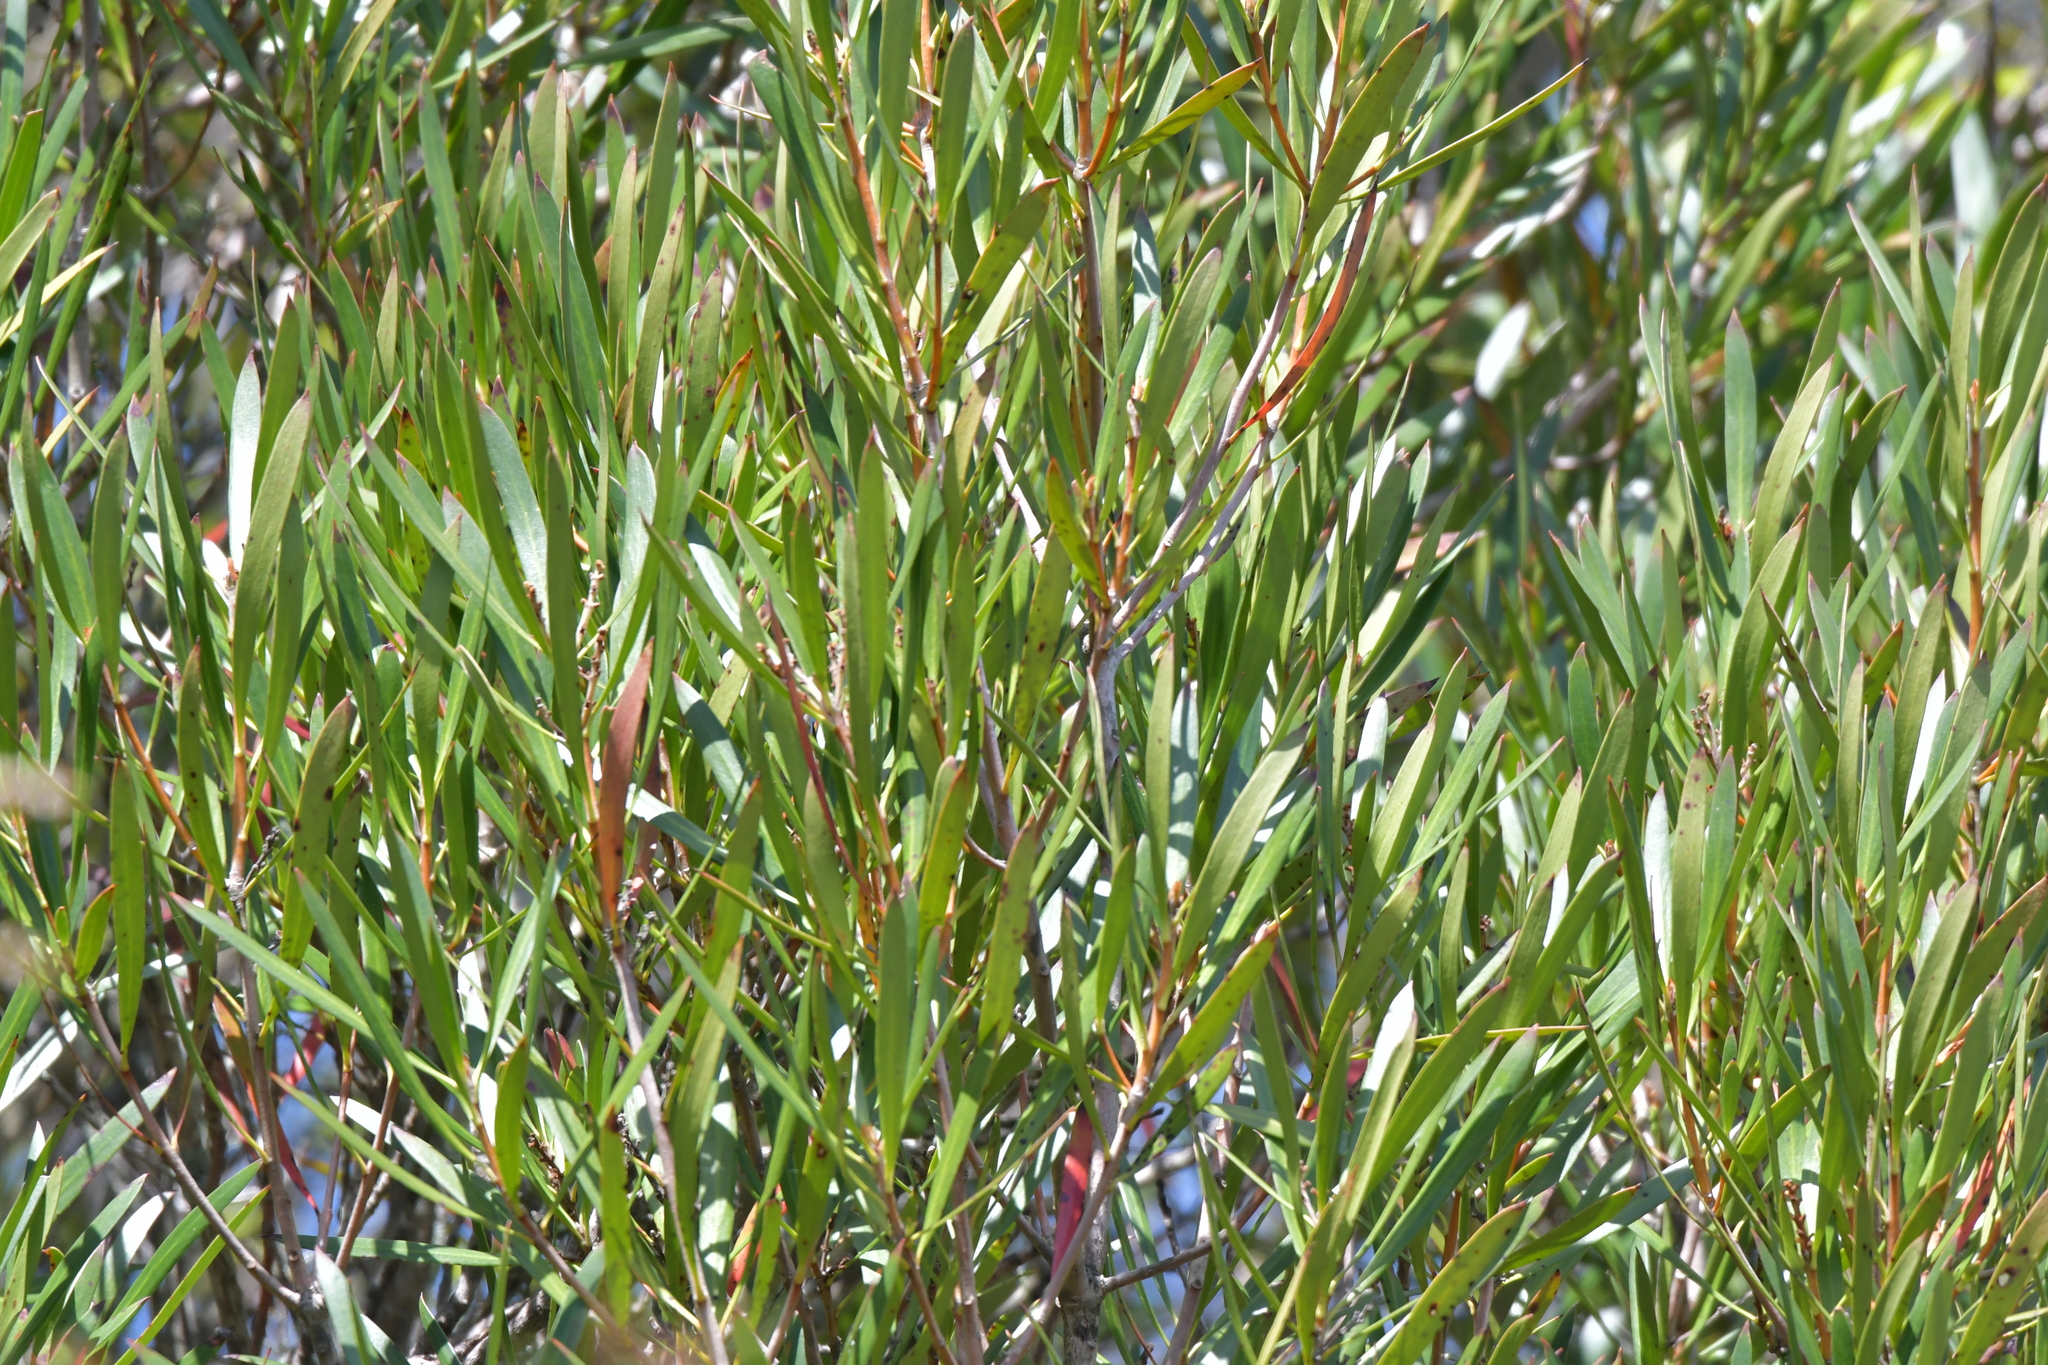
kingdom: Plantae
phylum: Tracheophyta
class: Magnoliopsida
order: Proteales
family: Proteaceae
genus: Toronia
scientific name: Toronia toru
